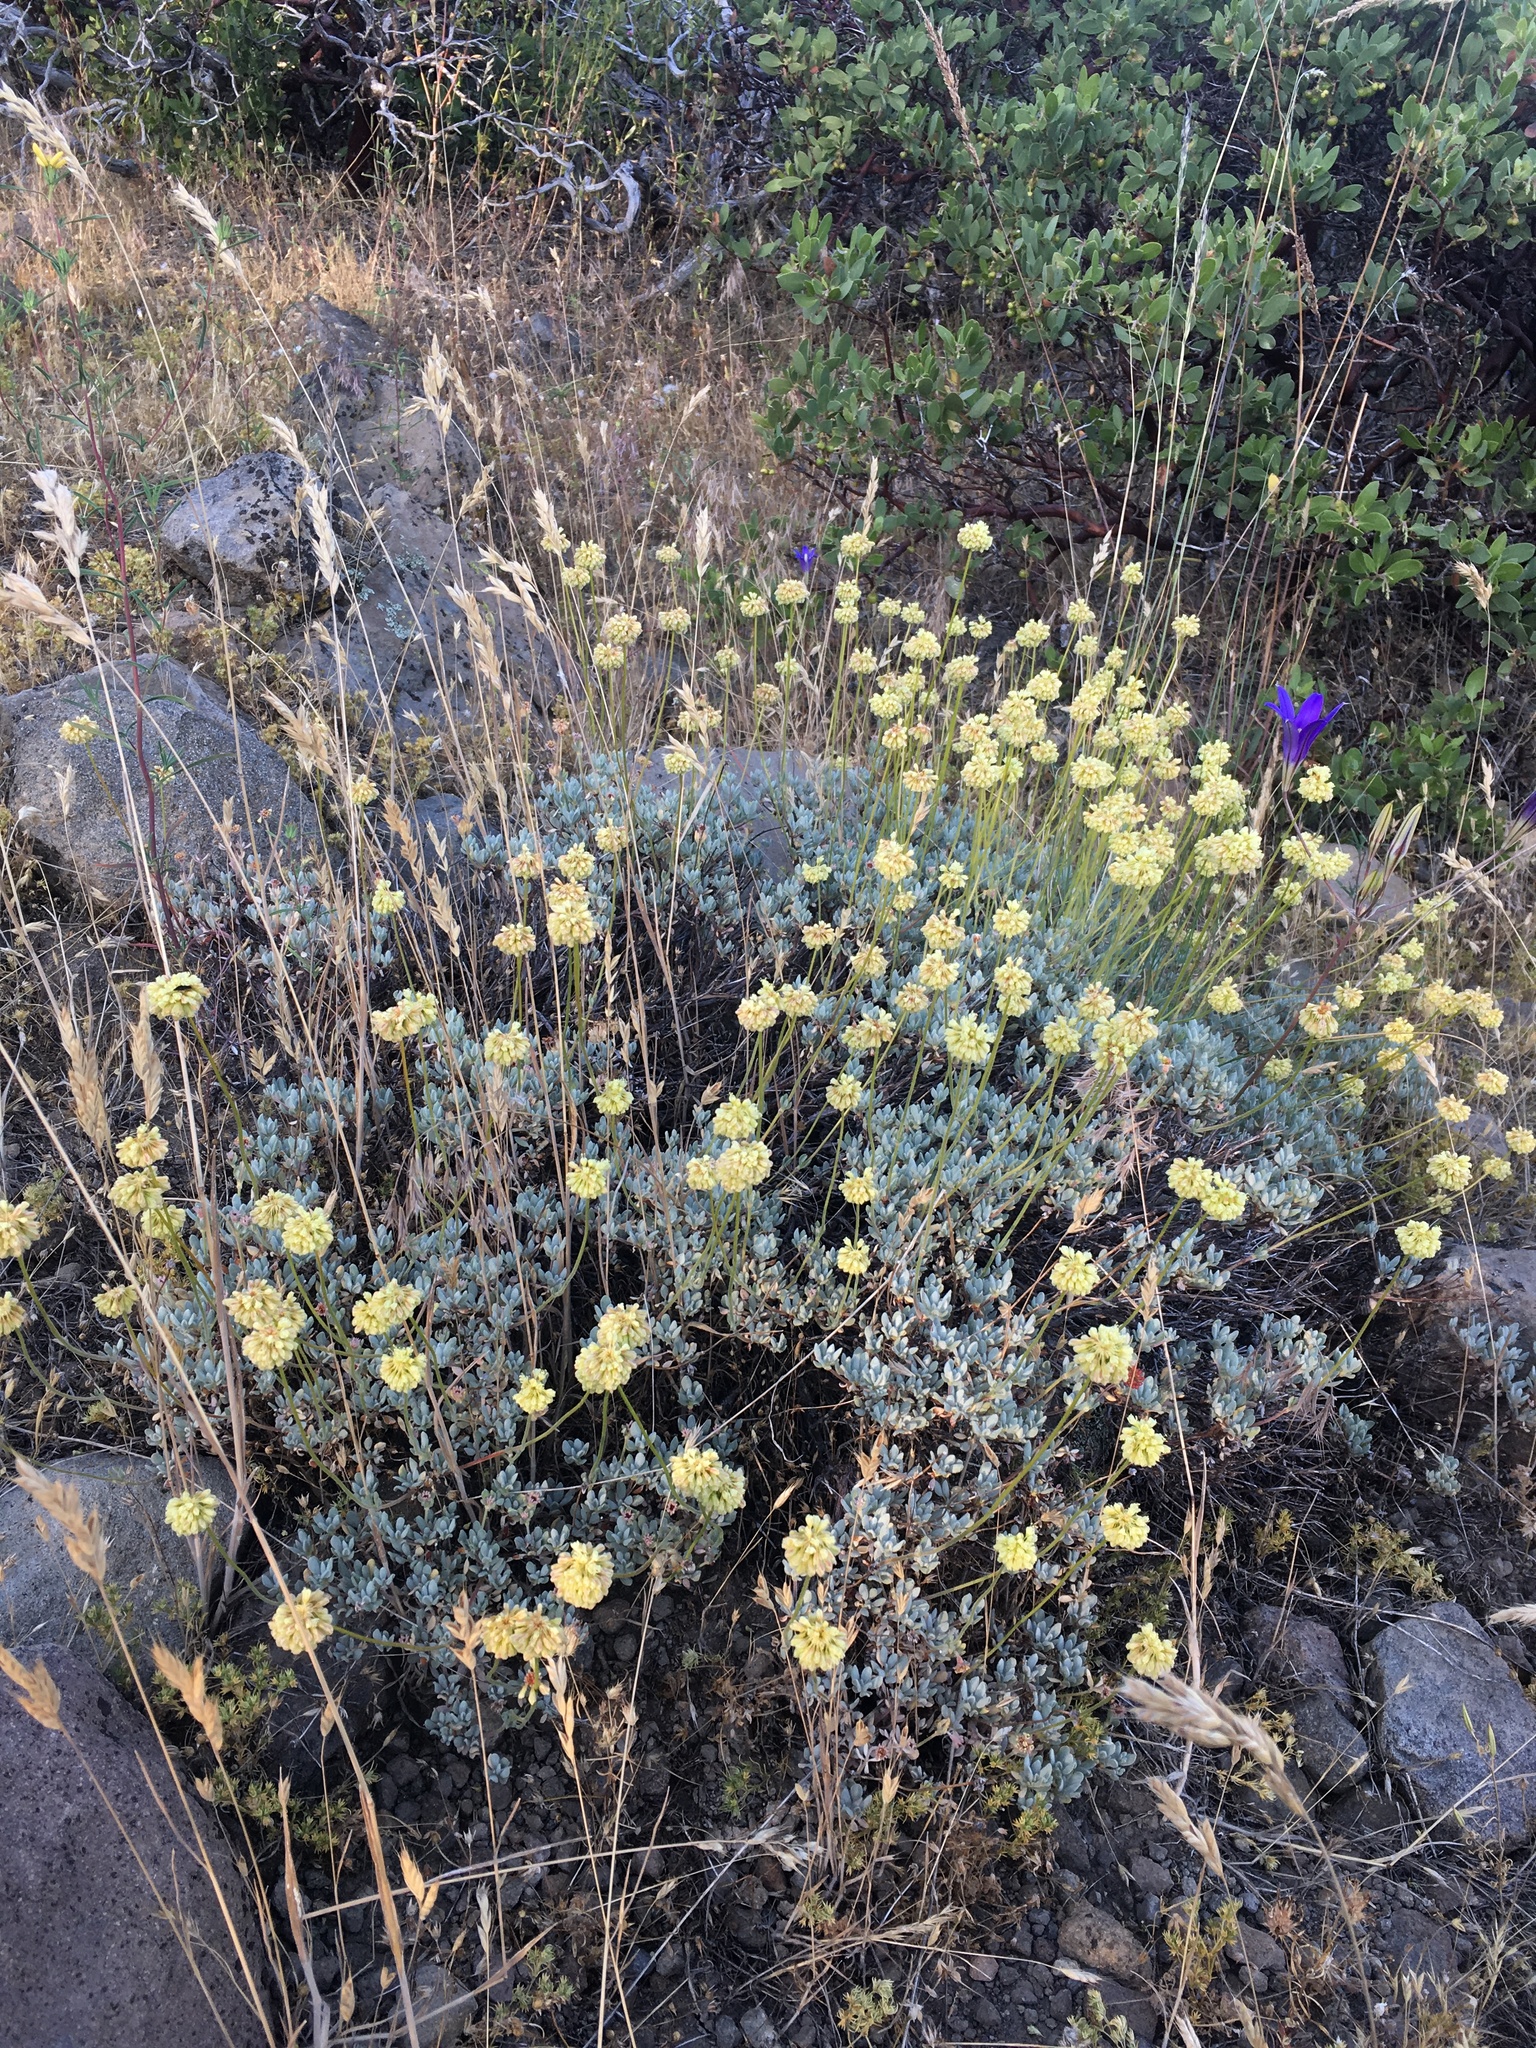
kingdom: Plantae
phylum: Tracheophyta
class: Magnoliopsida
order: Caryophyllales
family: Polygonaceae
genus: Eriogonum
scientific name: Eriogonum prattenianum
